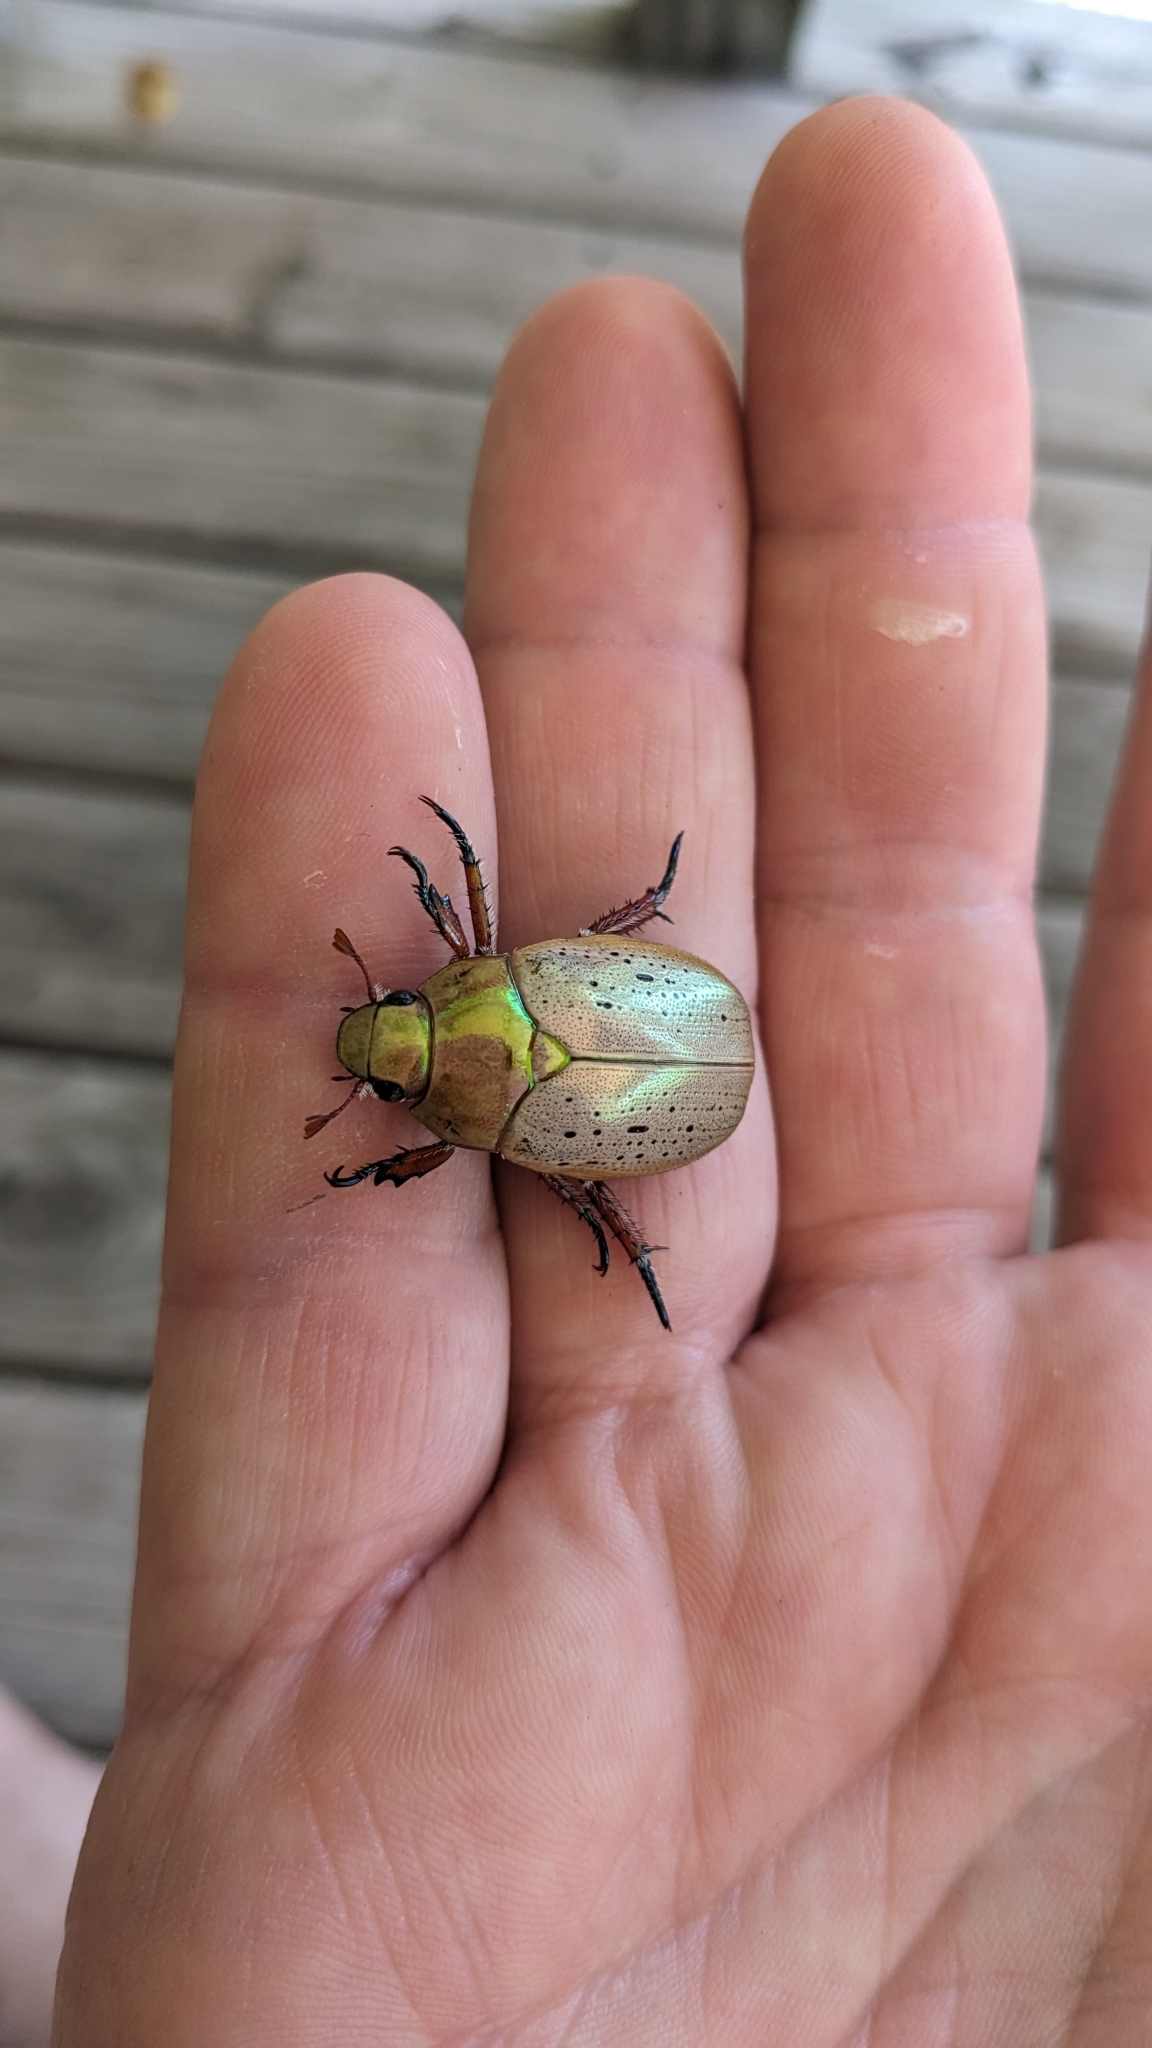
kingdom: Animalia
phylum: Arthropoda
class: Insecta
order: Coleoptera
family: Scarabaeidae
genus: Anoplognathus
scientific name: Anoplognathus porosus
